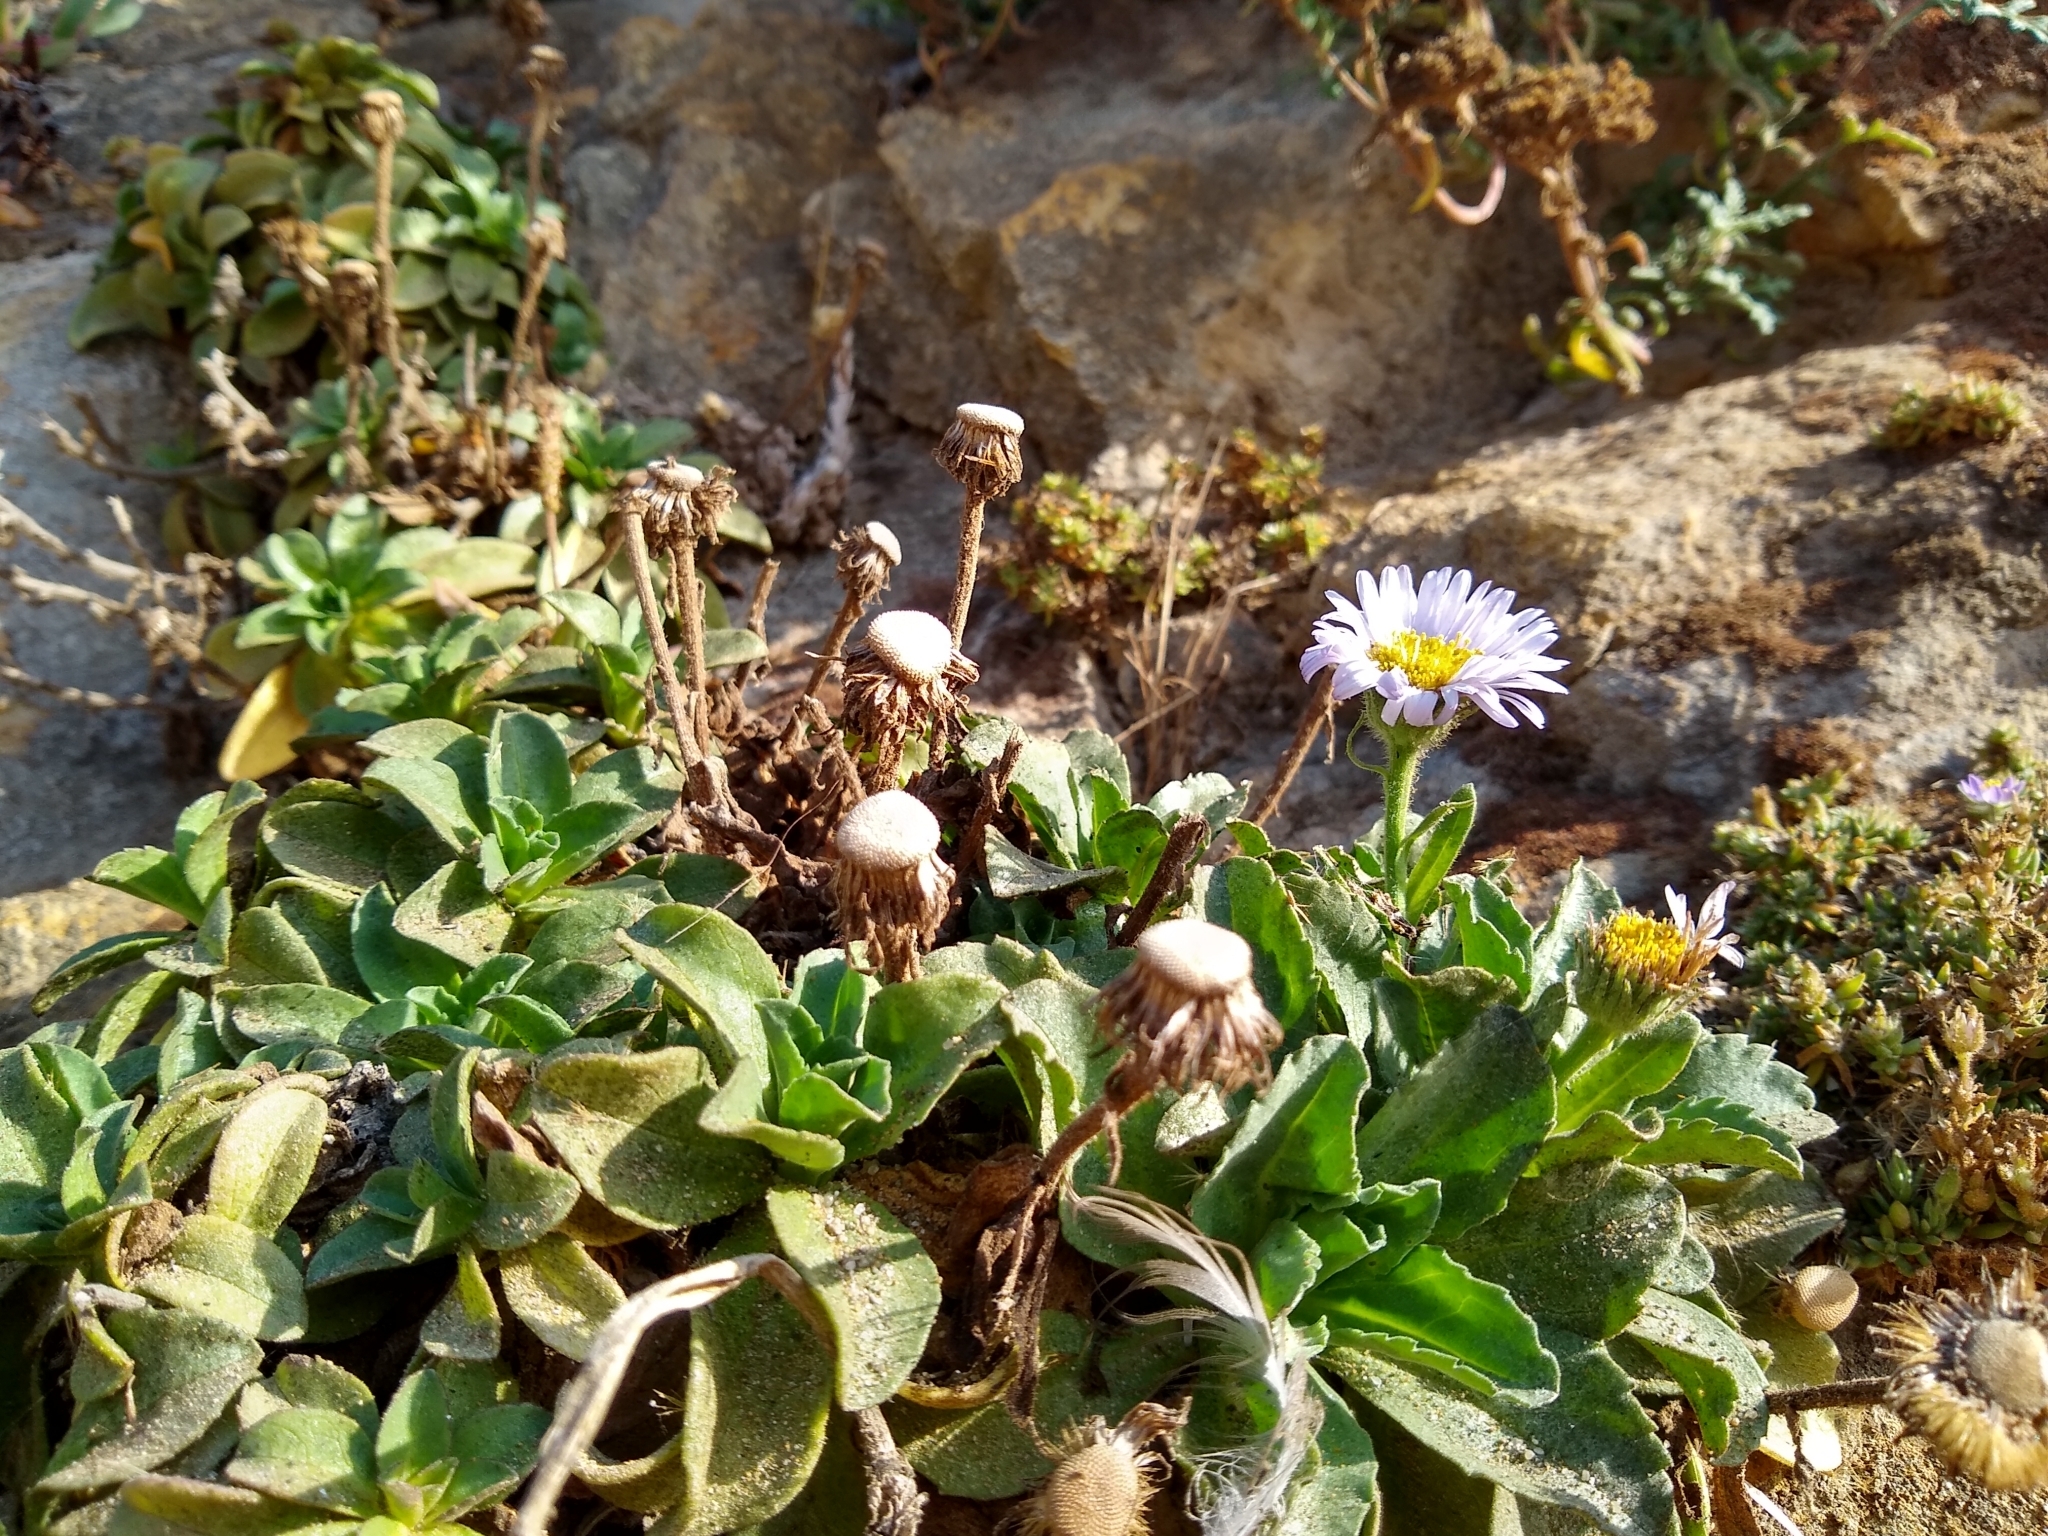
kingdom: Plantae
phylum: Tracheophyta
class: Magnoliopsida
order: Asterales
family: Asteraceae
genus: Erigeron
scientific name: Erigeron glaucus
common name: Seaside daisy
